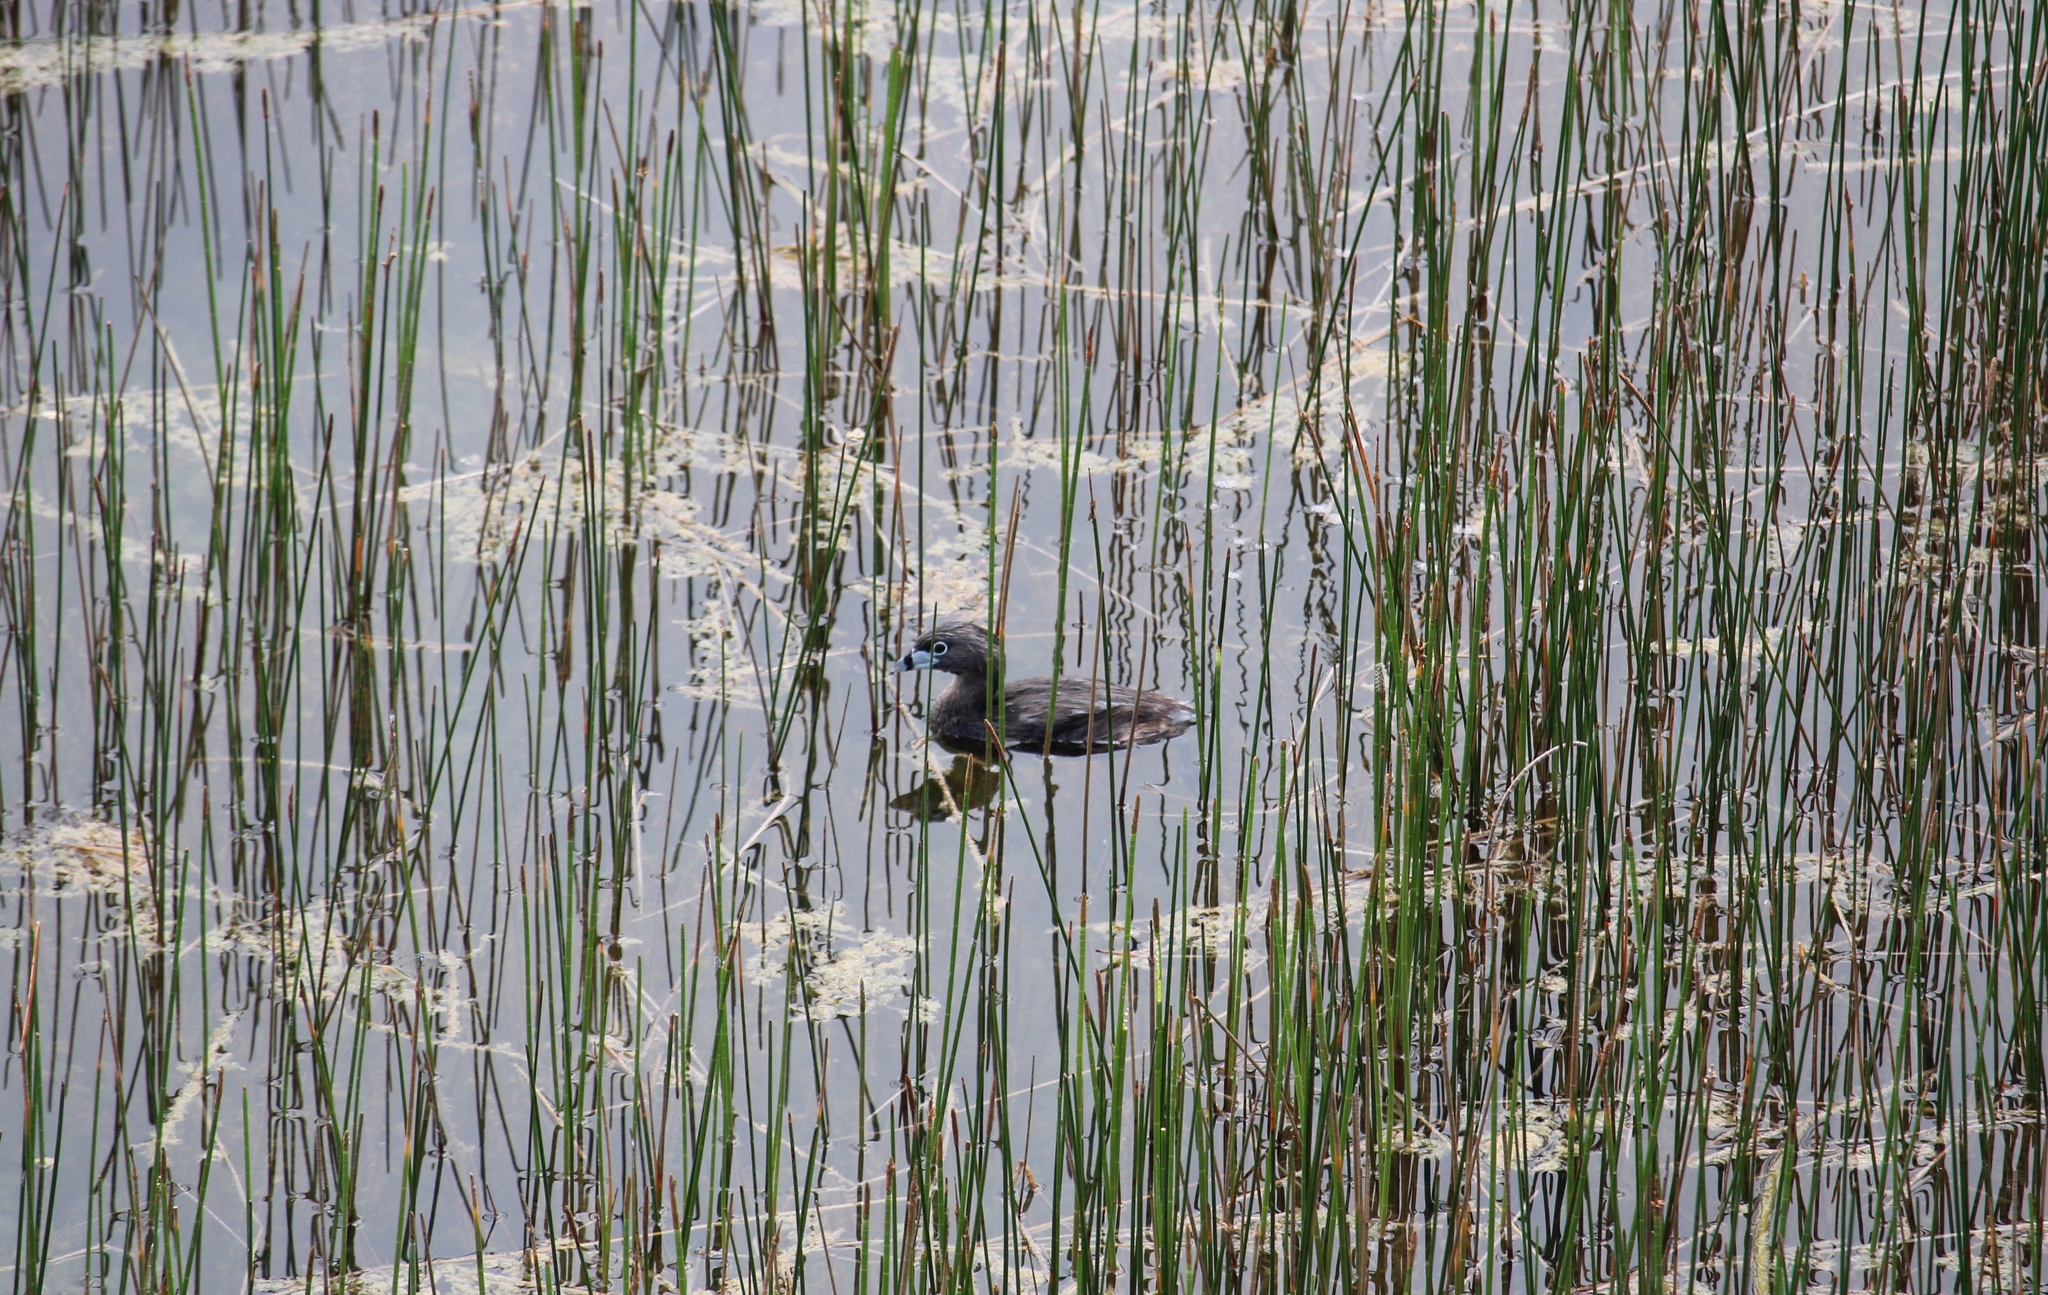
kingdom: Animalia
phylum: Chordata
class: Aves
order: Podicipediformes
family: Podicipedidae
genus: Podilymbus
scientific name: Podilymbus podiceps
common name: Pied-billed grebe
